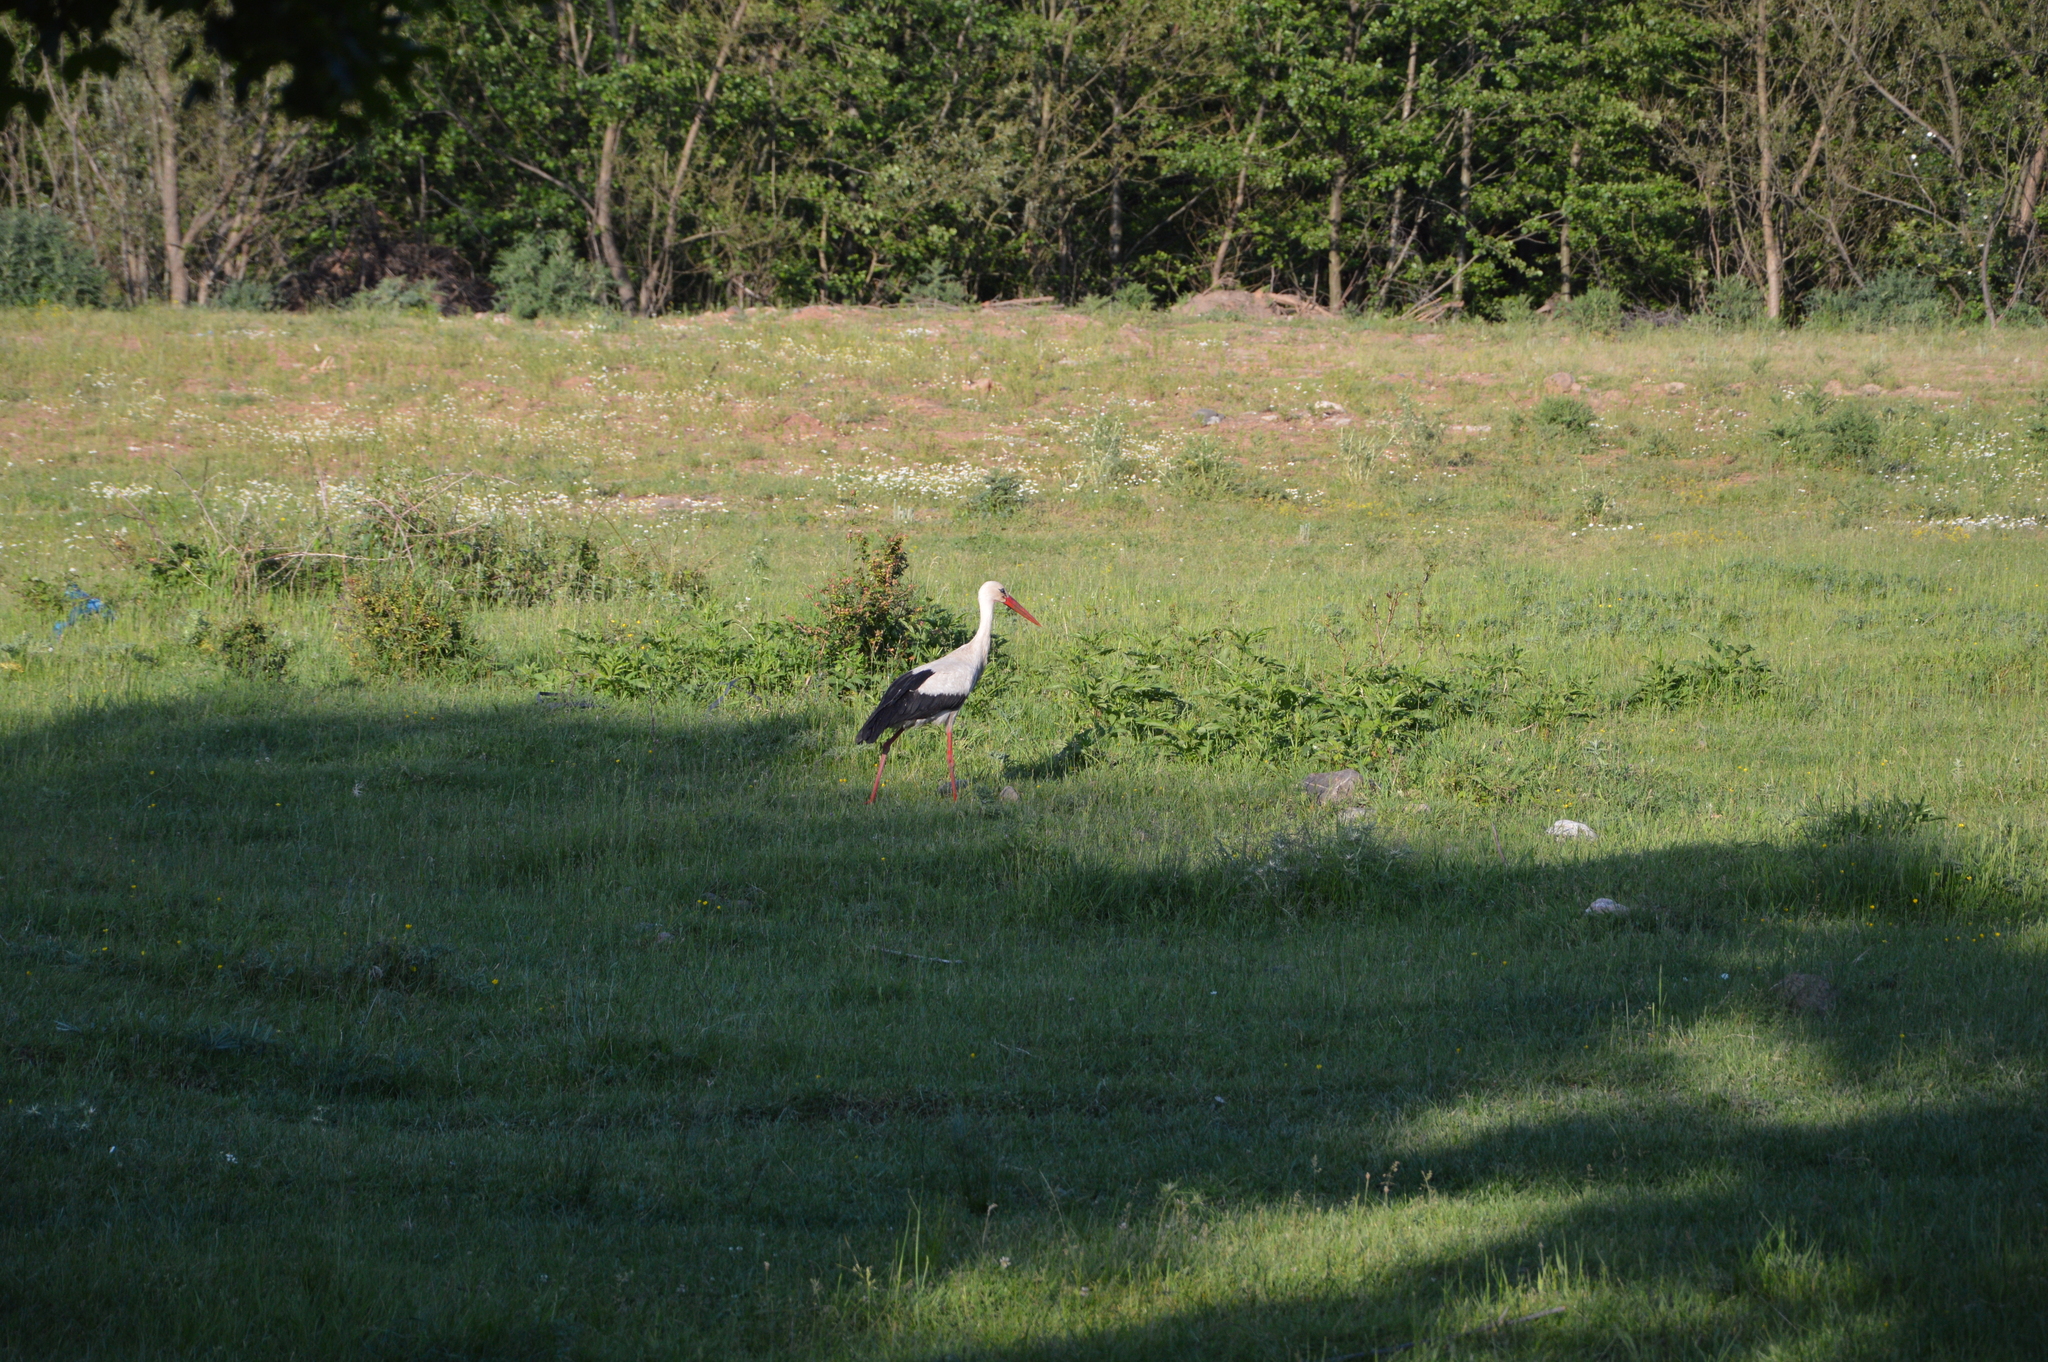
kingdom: Animalia
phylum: Chordata
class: Aves
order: Ciconiiformes
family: Ciconiidae
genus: Ciconia
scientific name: Ciconia ciconia
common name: White stork
